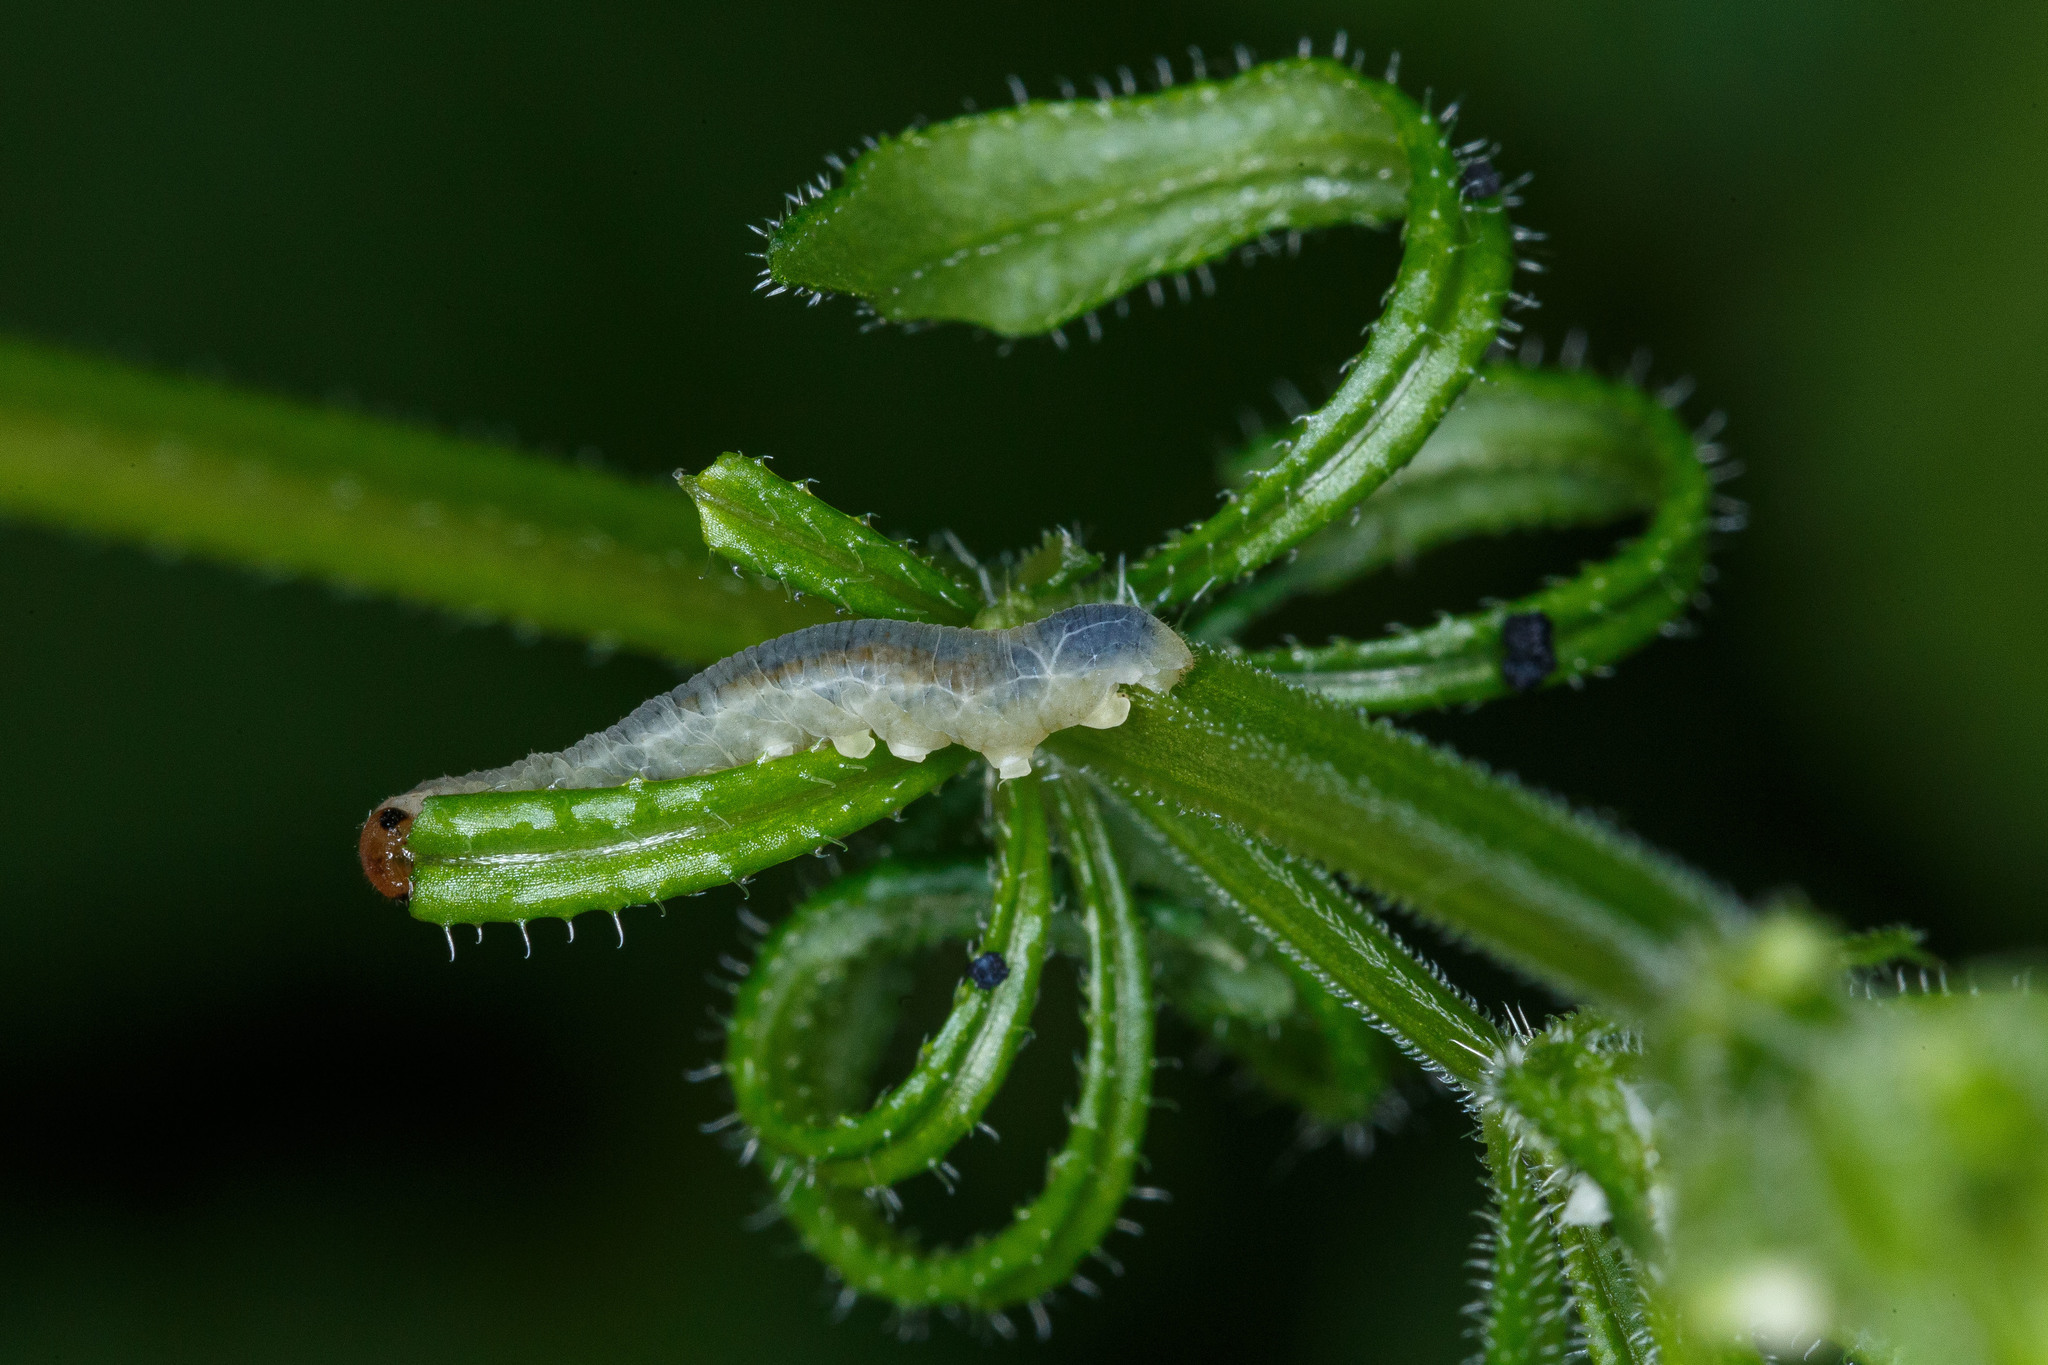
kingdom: Animalia
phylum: Arthropoda
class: Insecta
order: Hymenoptera
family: Tenthredinidae
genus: Halidamia
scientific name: Halidamia affinis
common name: Wasp
